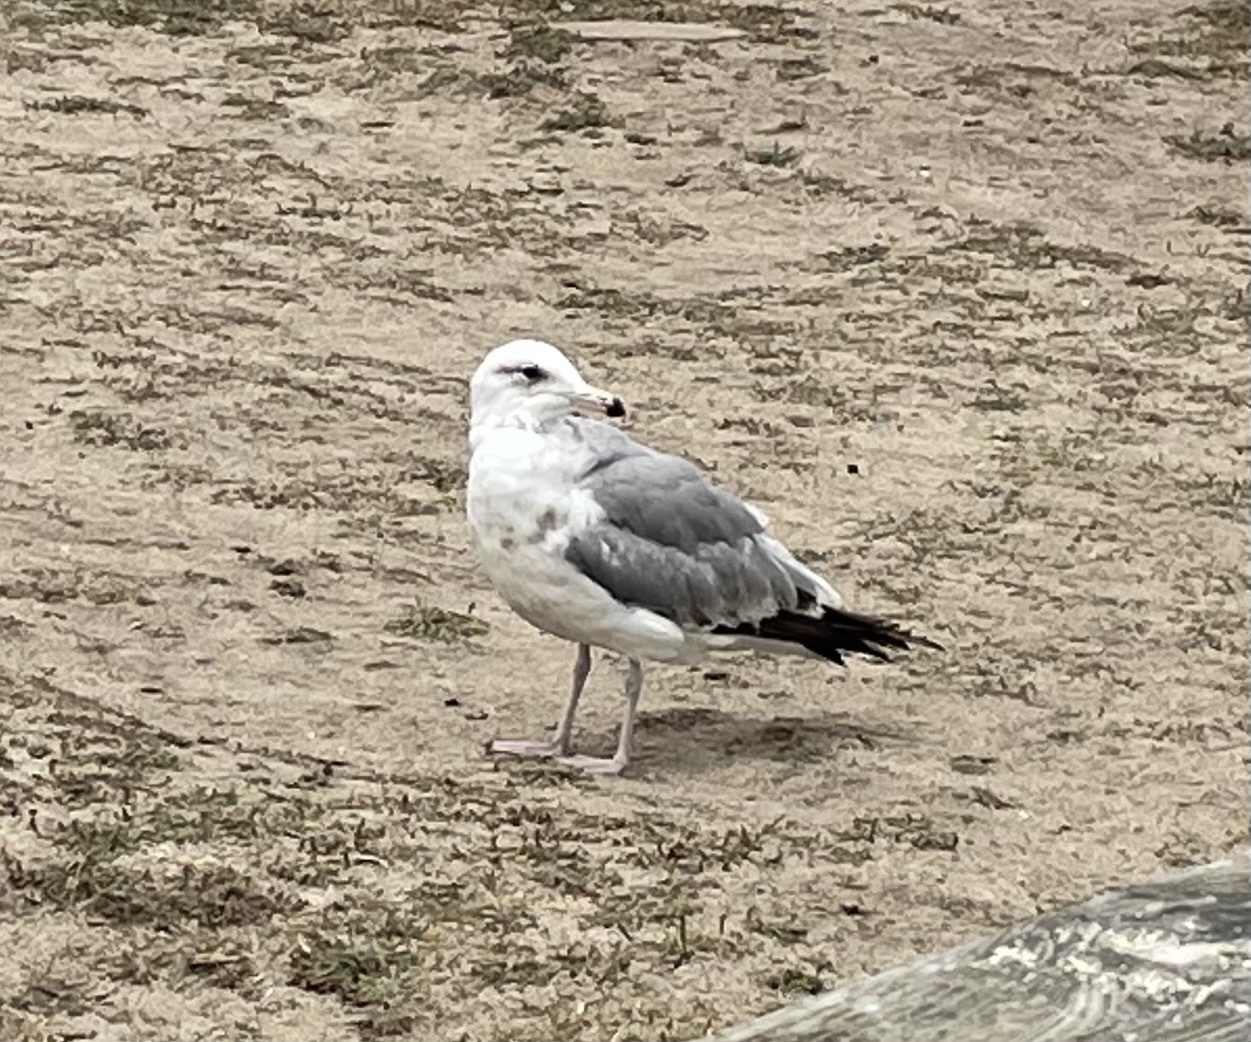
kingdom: Animalia
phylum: Chordata
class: Aves
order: Charadriiformes
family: Laridae
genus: Larus
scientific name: Larus californicus
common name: California gull
